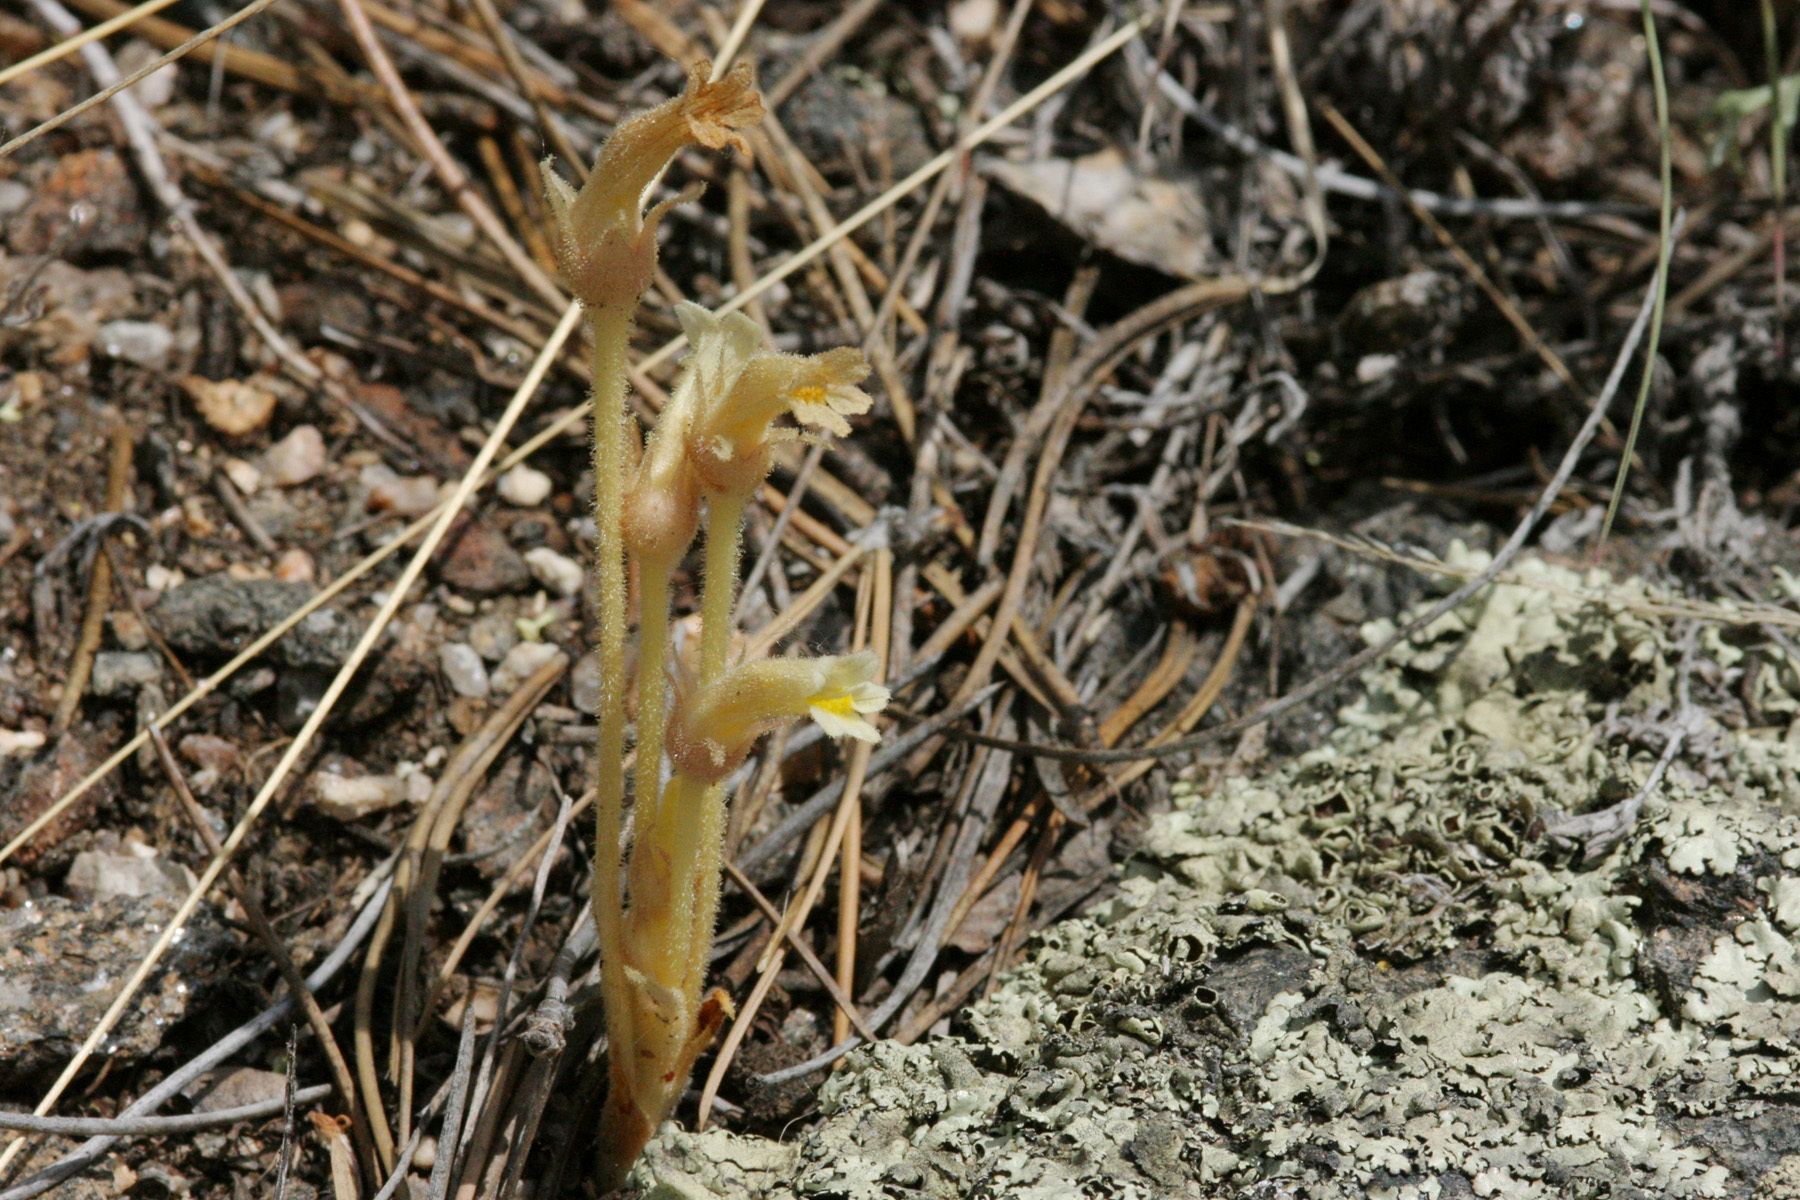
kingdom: Plantae
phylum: Tracheophyta
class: Magnoliopsida
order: Lamiales
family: Orobanchaceae
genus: Aphyllon
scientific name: Aphyllon fasciculatum
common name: Clustered broomrape
